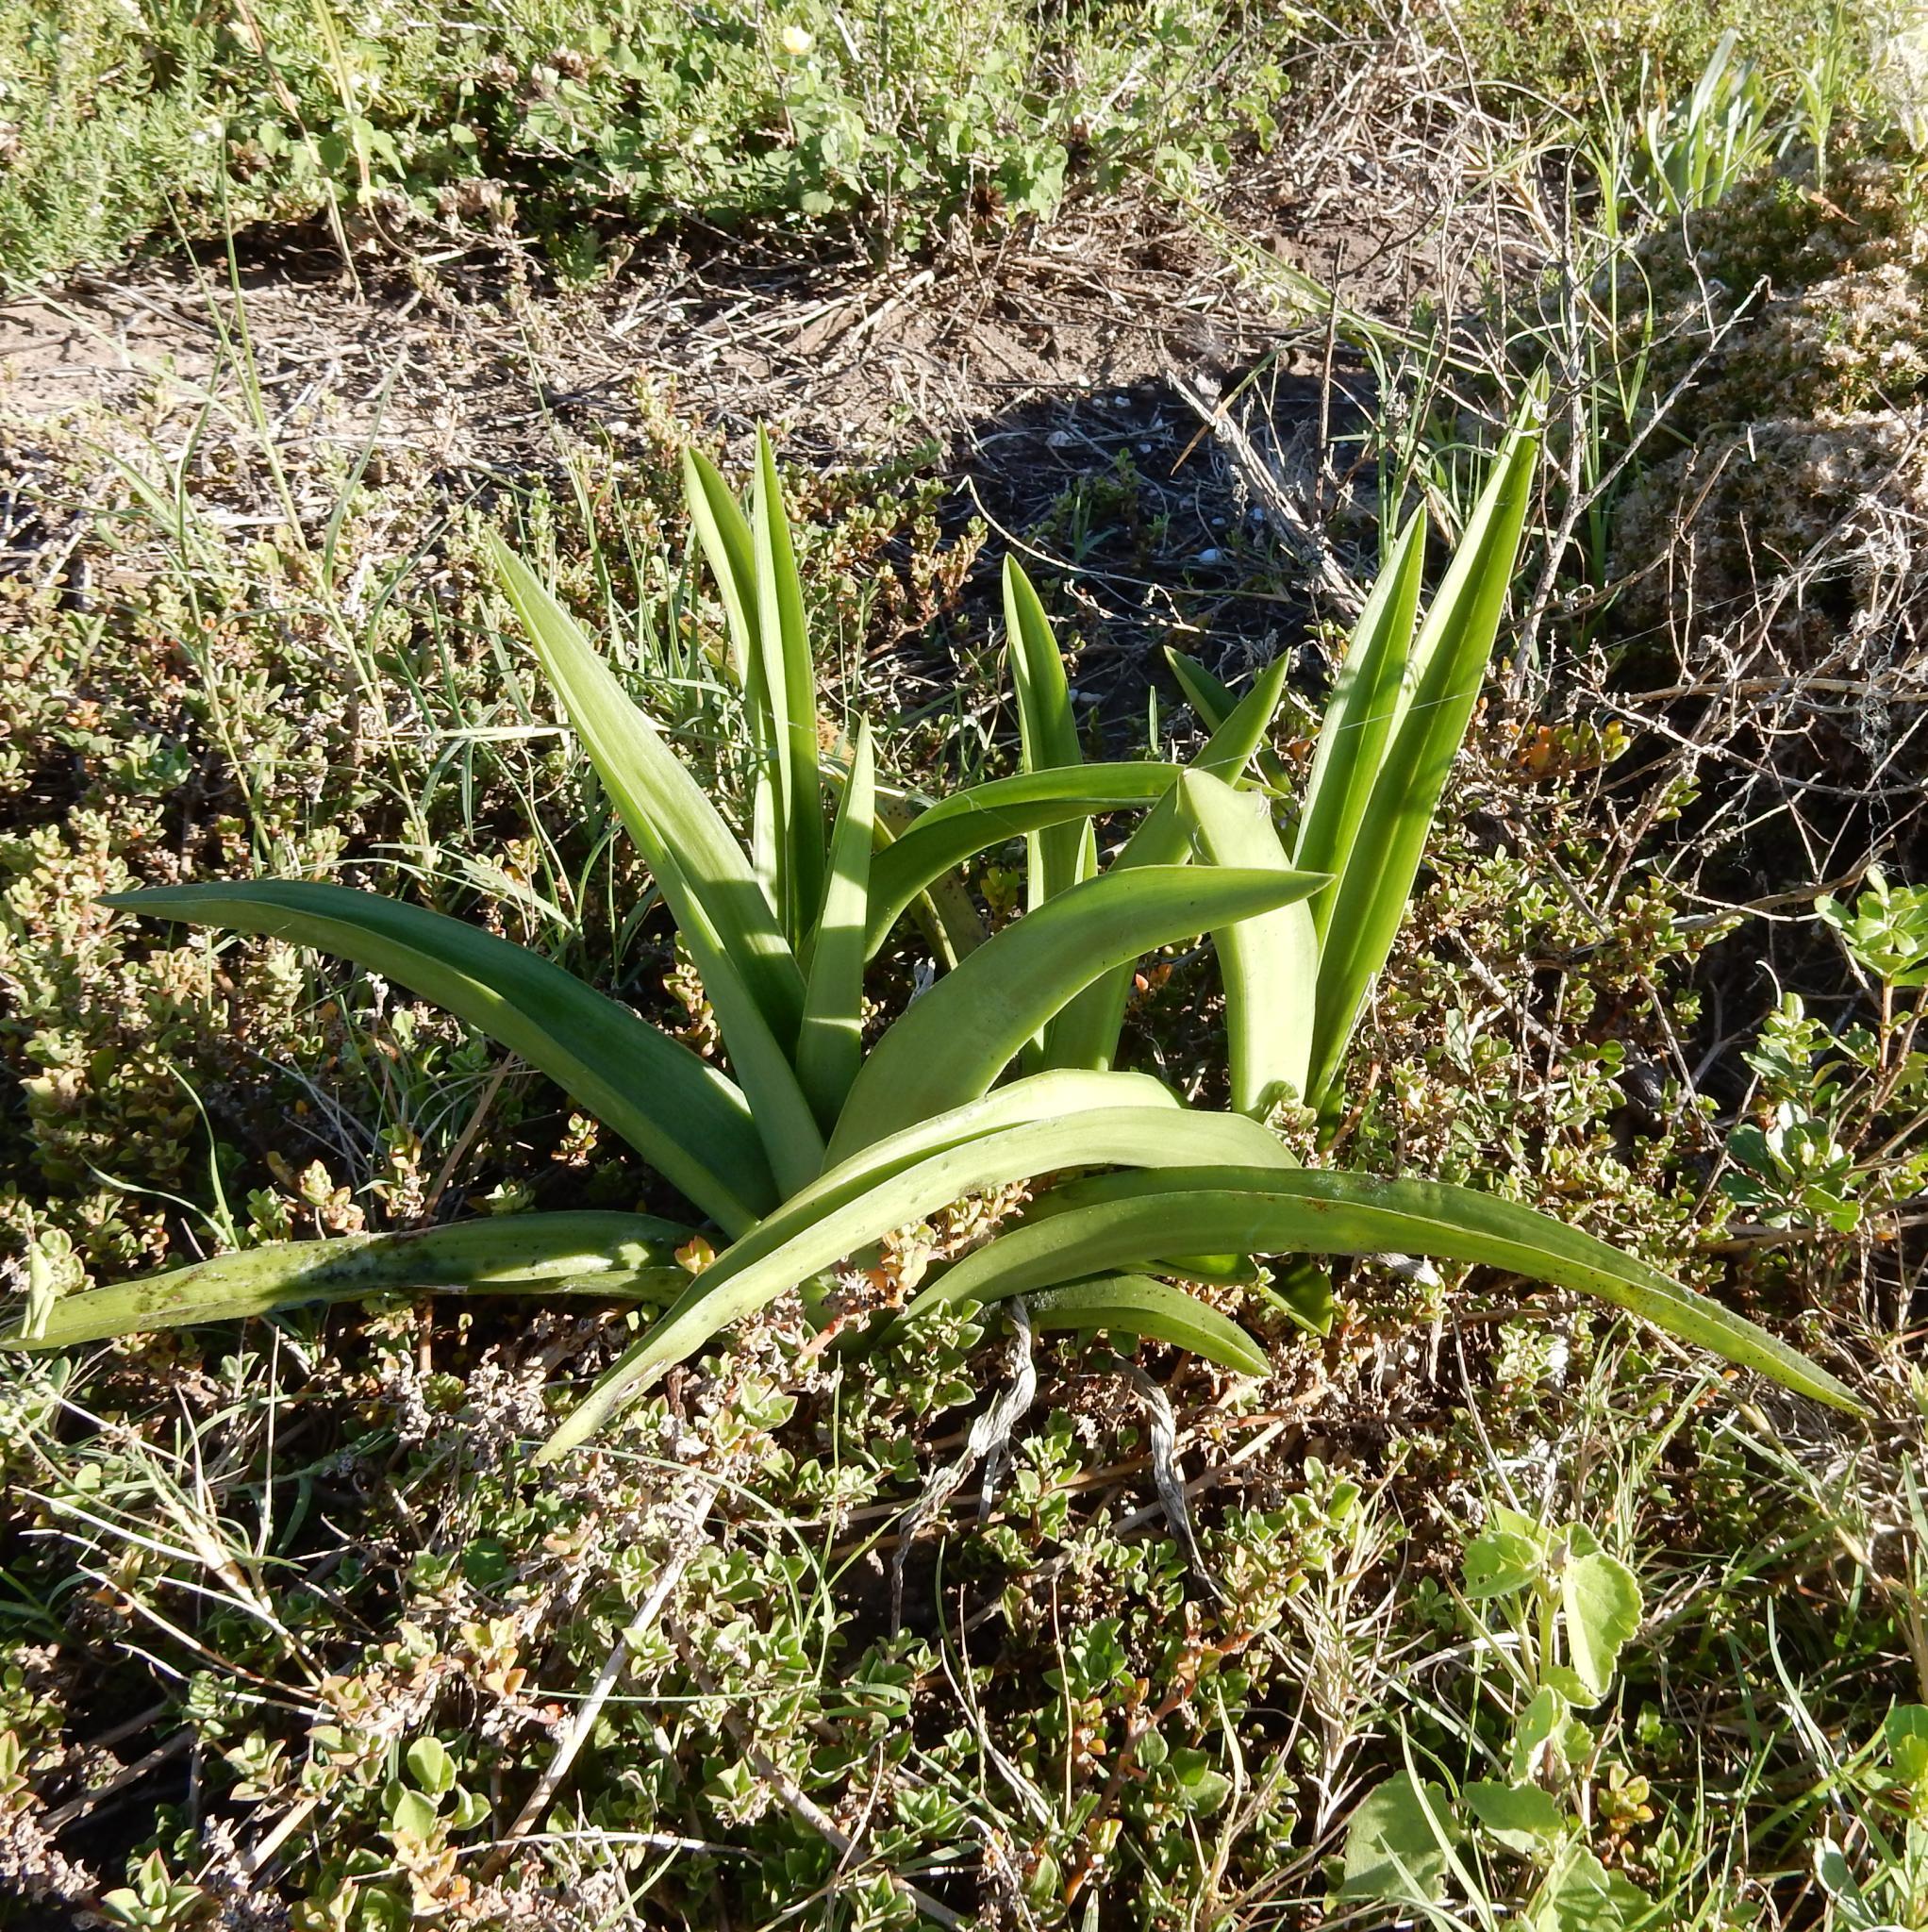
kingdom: Plantae
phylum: Tracheophyta
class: Liliopsida
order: Asparagales
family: Orchidaceae
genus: Eulophia
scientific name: Eulophia speciosa
